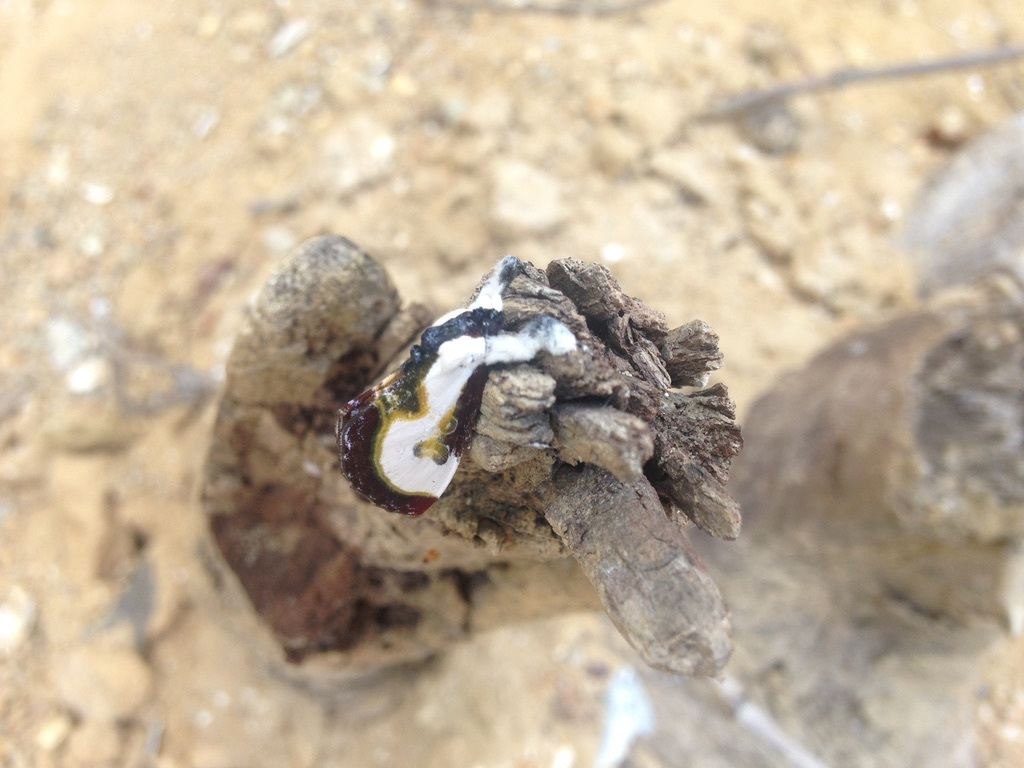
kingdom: Animalia
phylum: Arthropoda
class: Insecta
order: Lepidoptera
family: Noctuidae
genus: Eudryas
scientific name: Eudryas grata
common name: Beautiful wood-nymph
